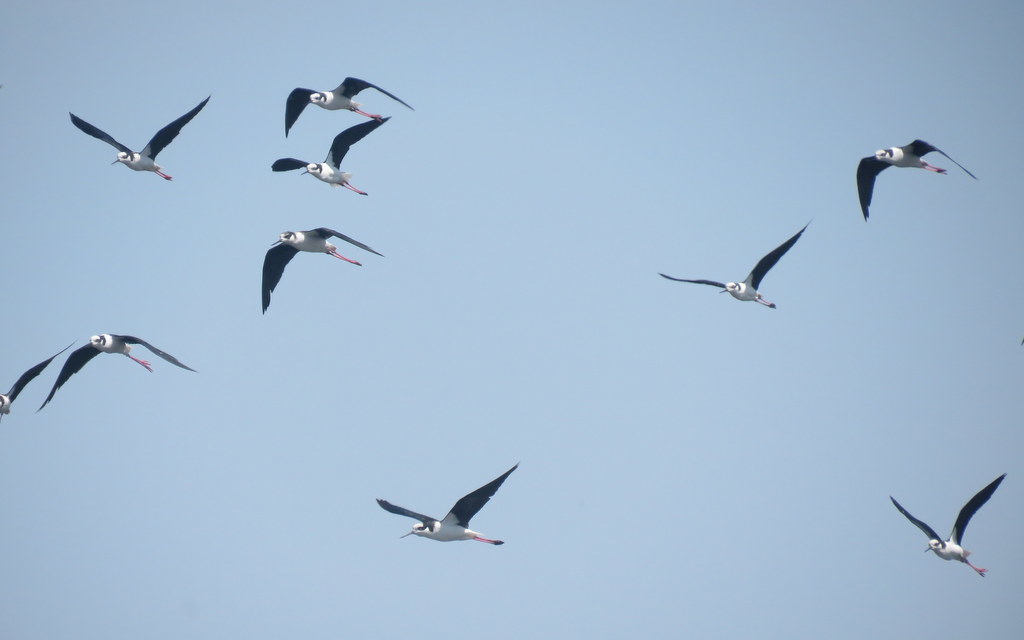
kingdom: Animalia
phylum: Chordata
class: Aves
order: Charadriiformes
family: Recurvirostridae
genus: Himantopus
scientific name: Himantopus mexicanus
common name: Black-necked stilt
